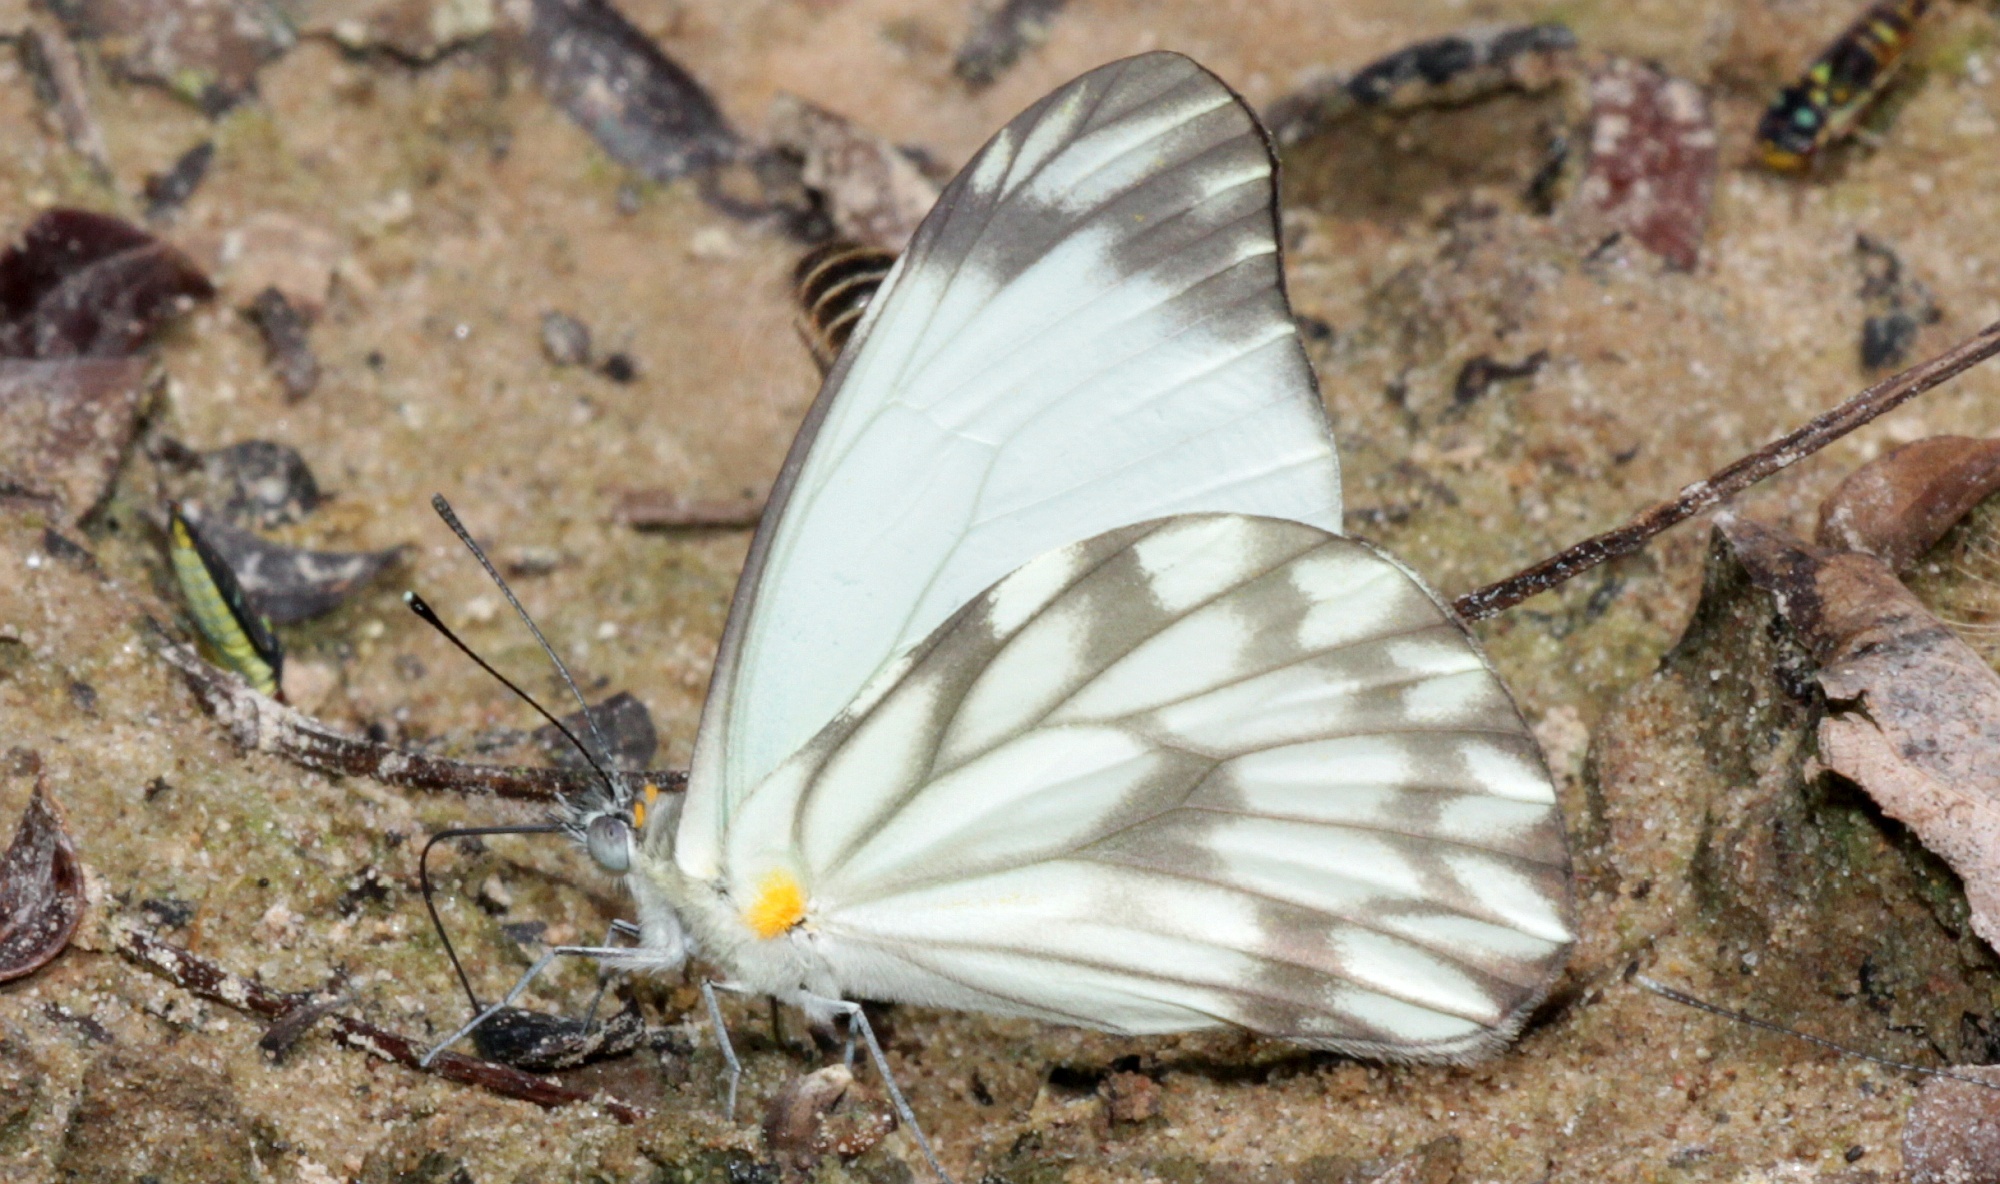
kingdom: Animalia
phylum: Arthropoda
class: Insecta
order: Lepidoptera
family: Pieridae
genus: Hesperocharis
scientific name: Hesperocharis nera
